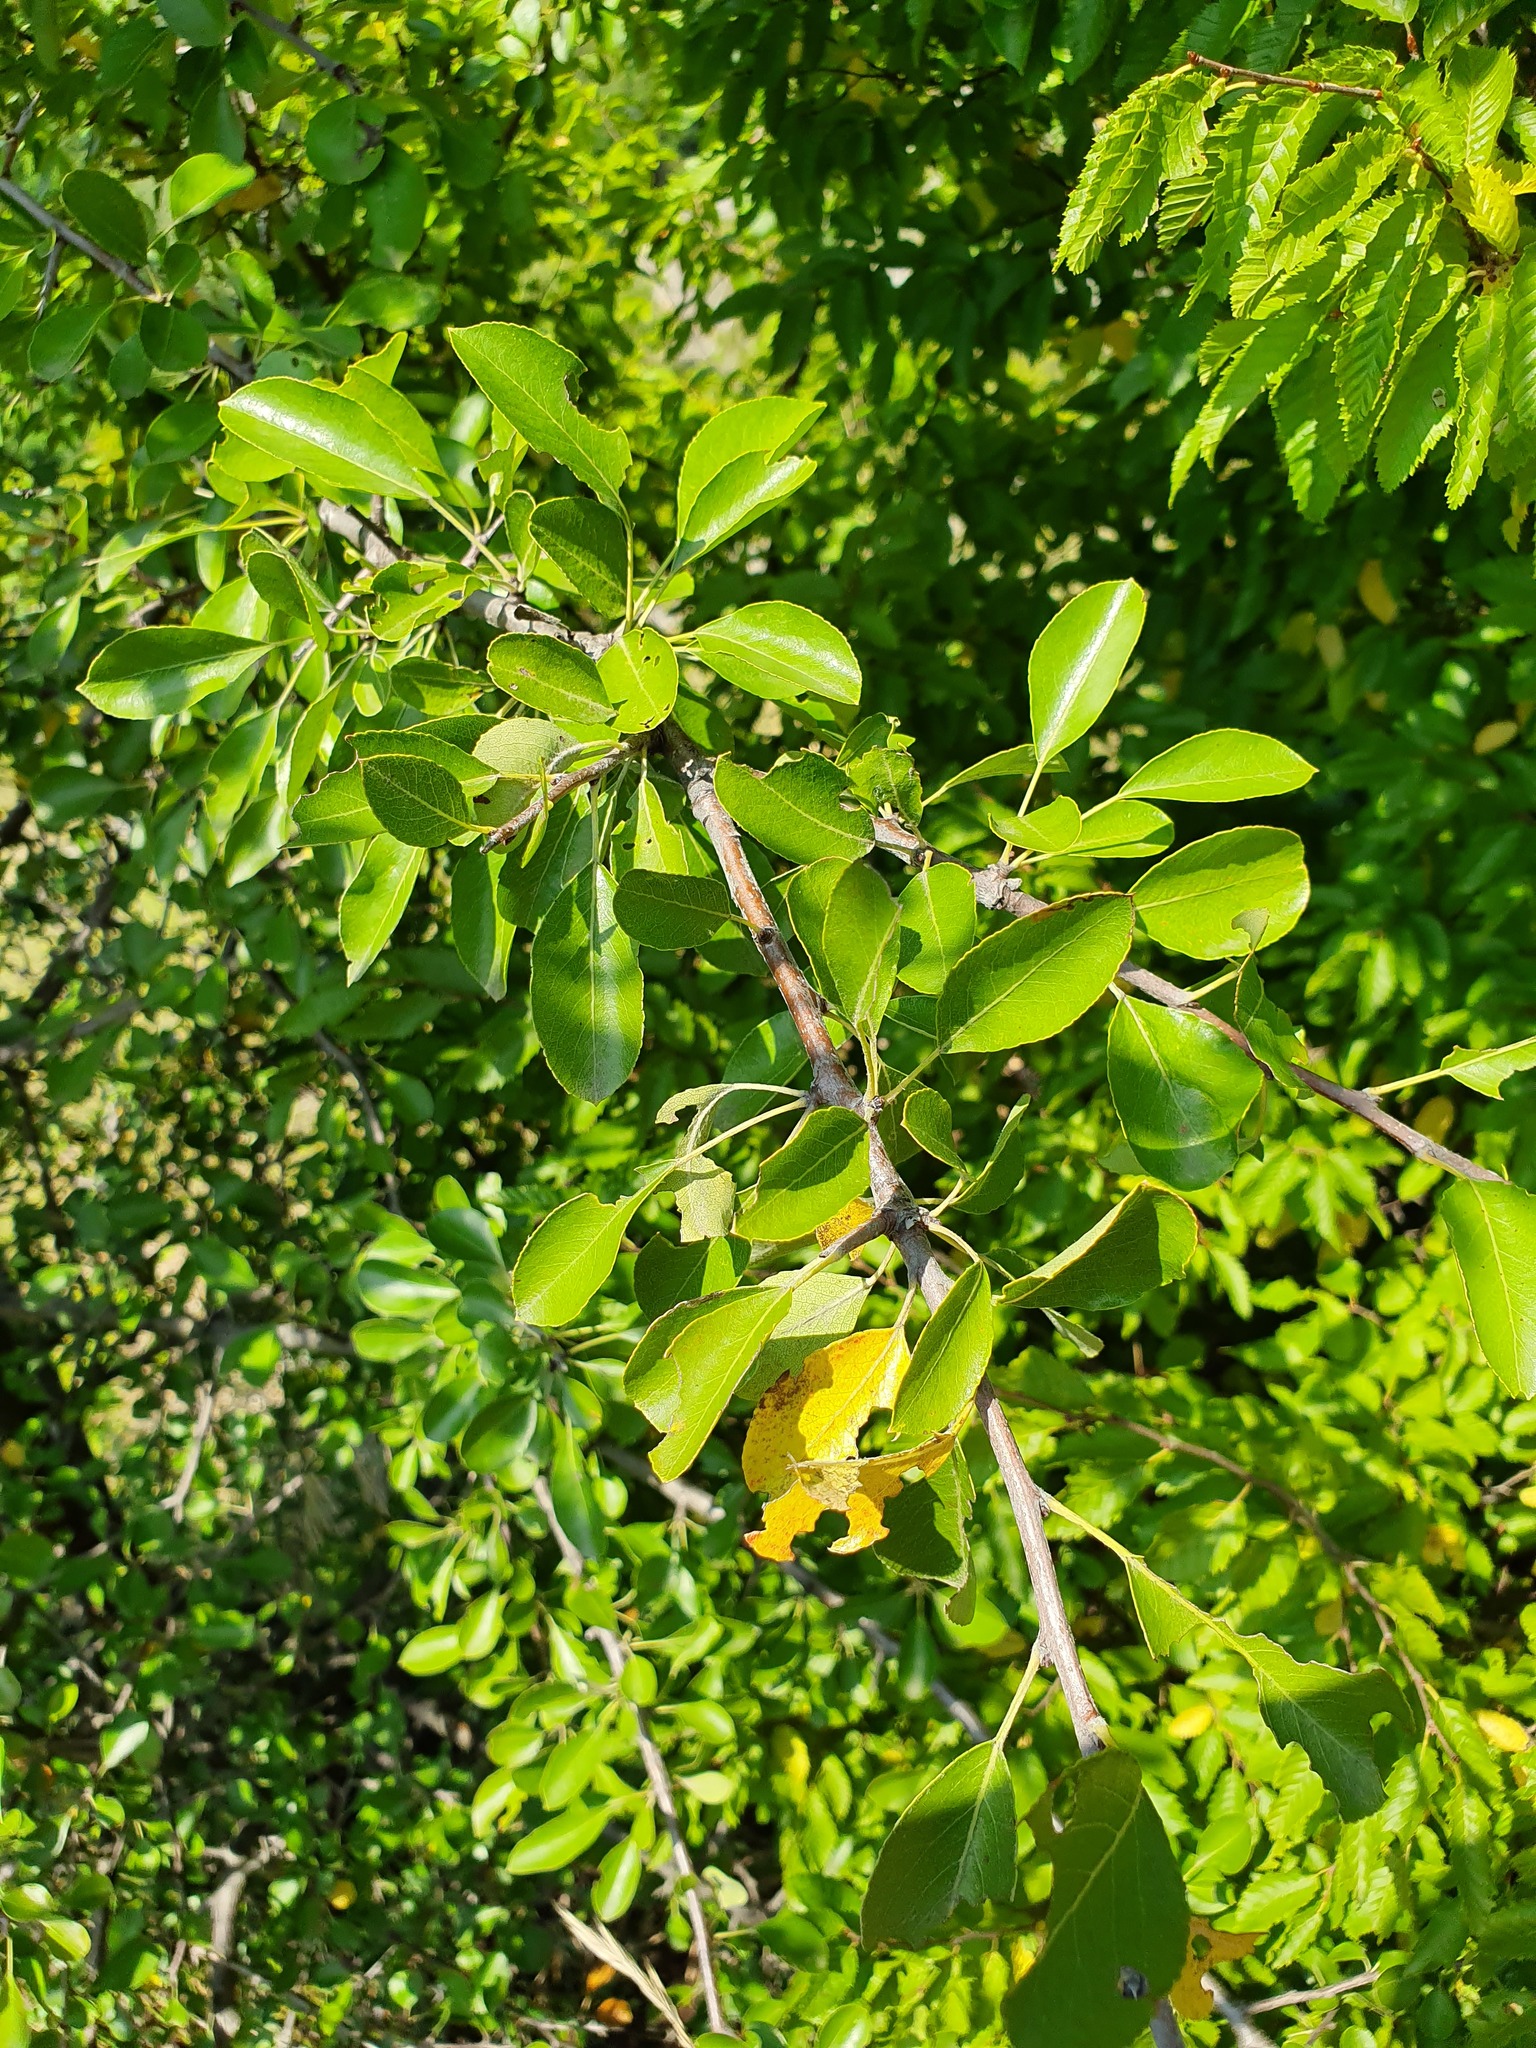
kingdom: Plantae
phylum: Tracheophyta
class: Magnoliopsida
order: Rosales
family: Rosaceae
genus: Pyrus
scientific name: Pyrus spinosa
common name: Almond-leaf pear
